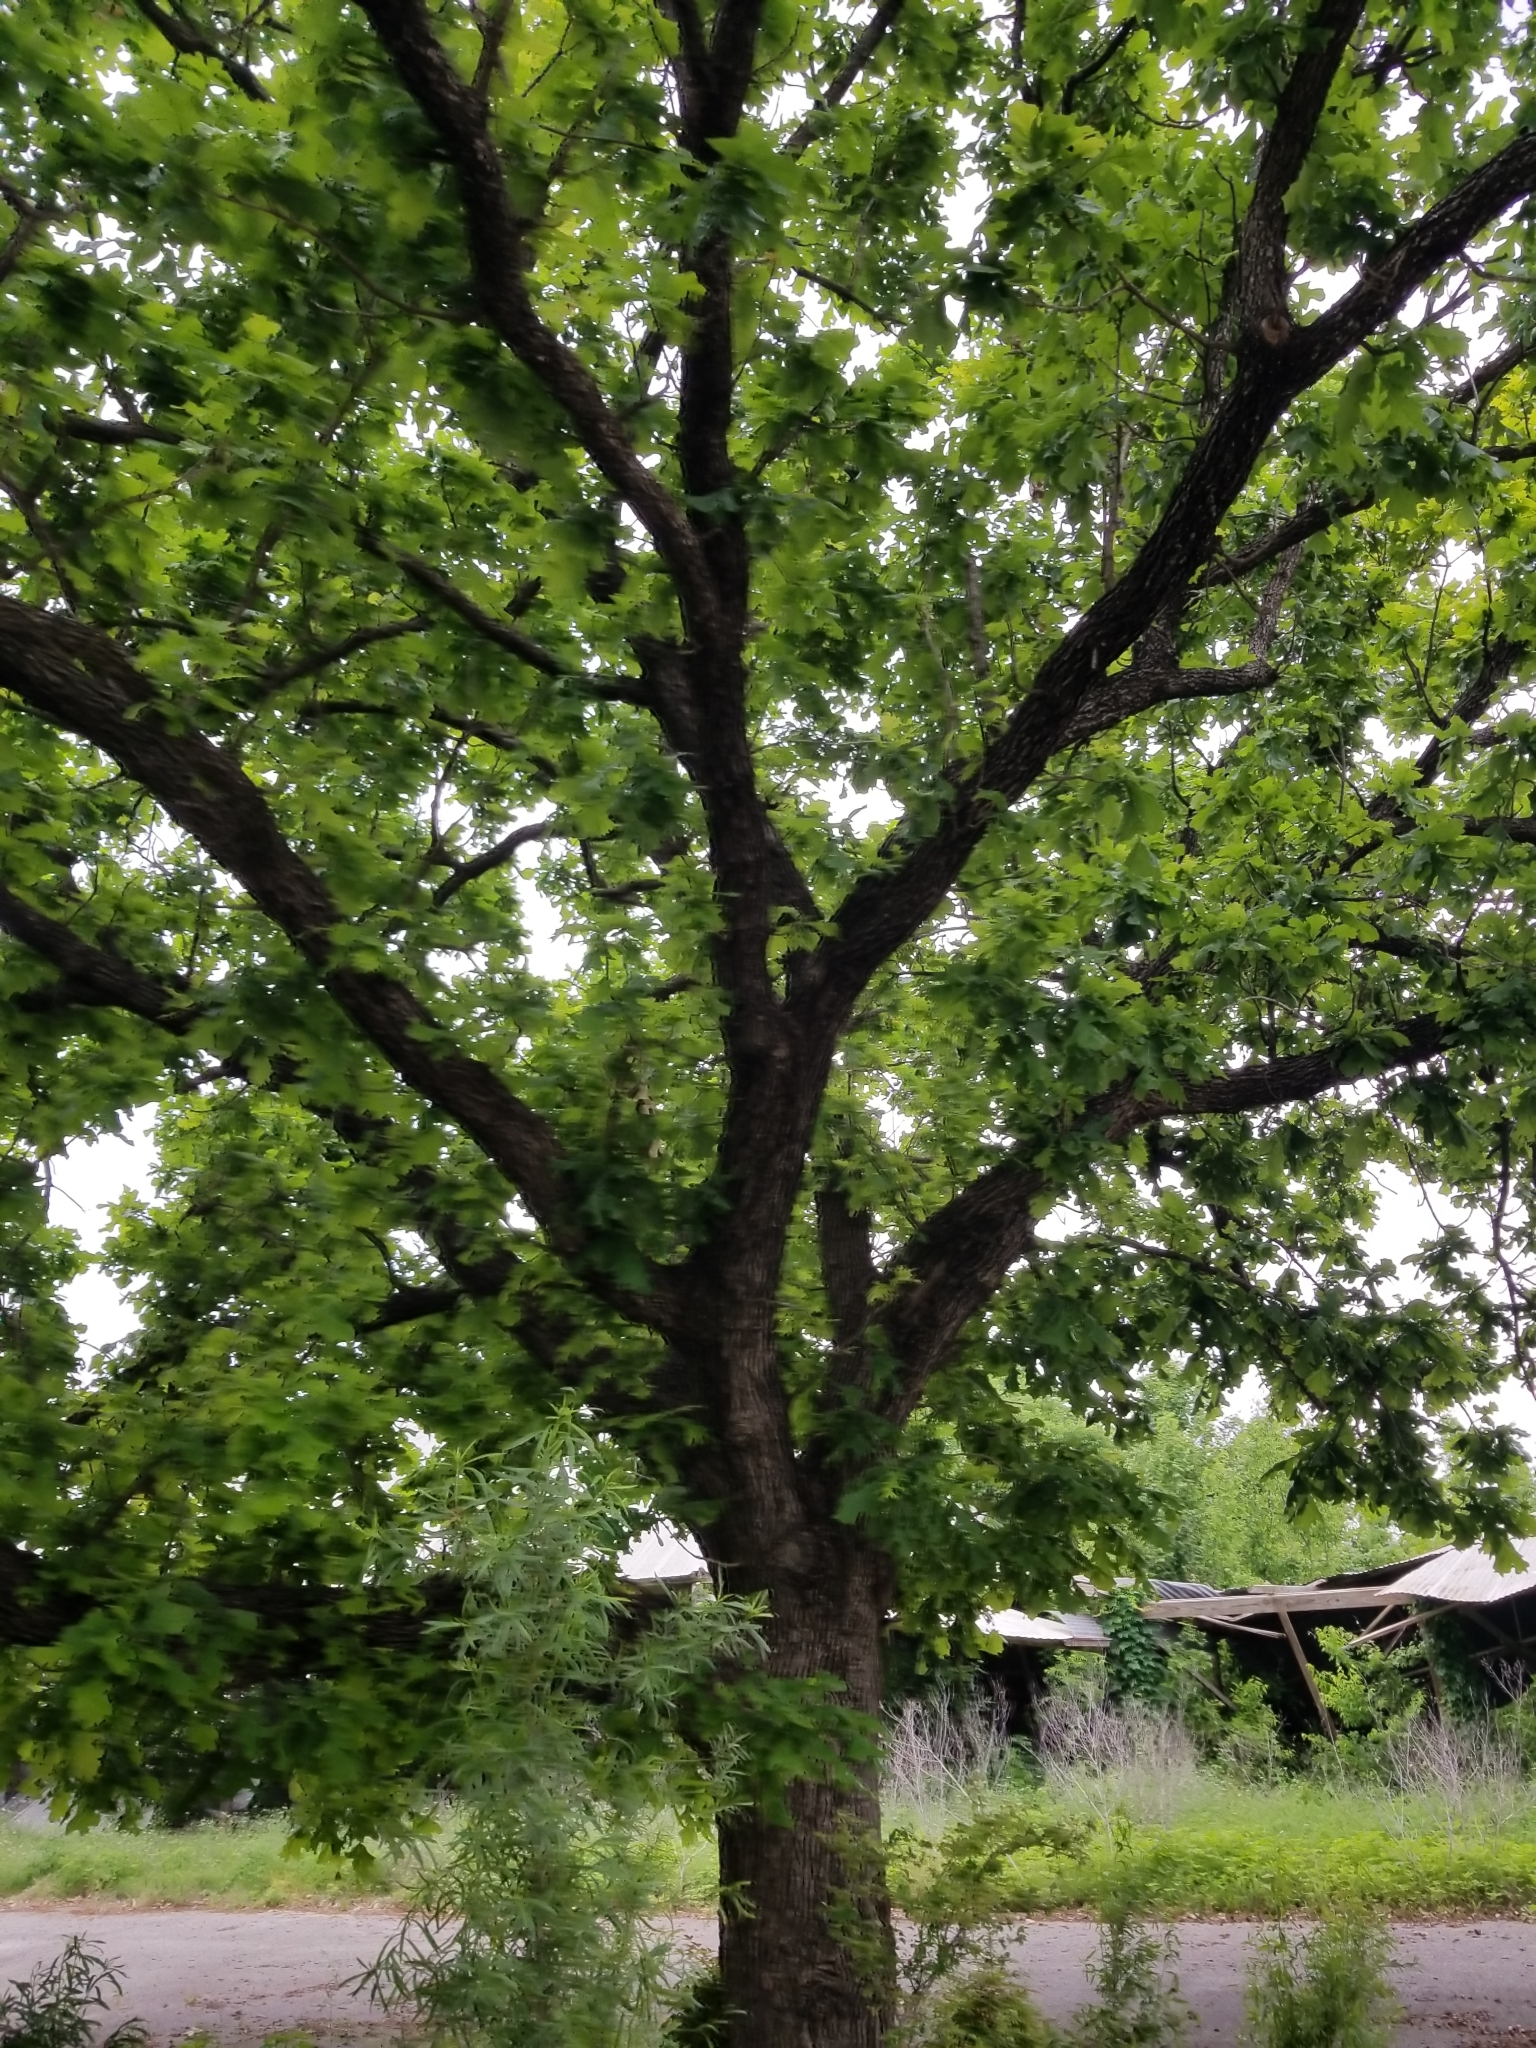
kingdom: Plantae
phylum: Tracheophyta
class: Magnoliopsida
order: Fagales
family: Fagaceae
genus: Quercus
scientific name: Quercus macrocarpa
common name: Bur oak
